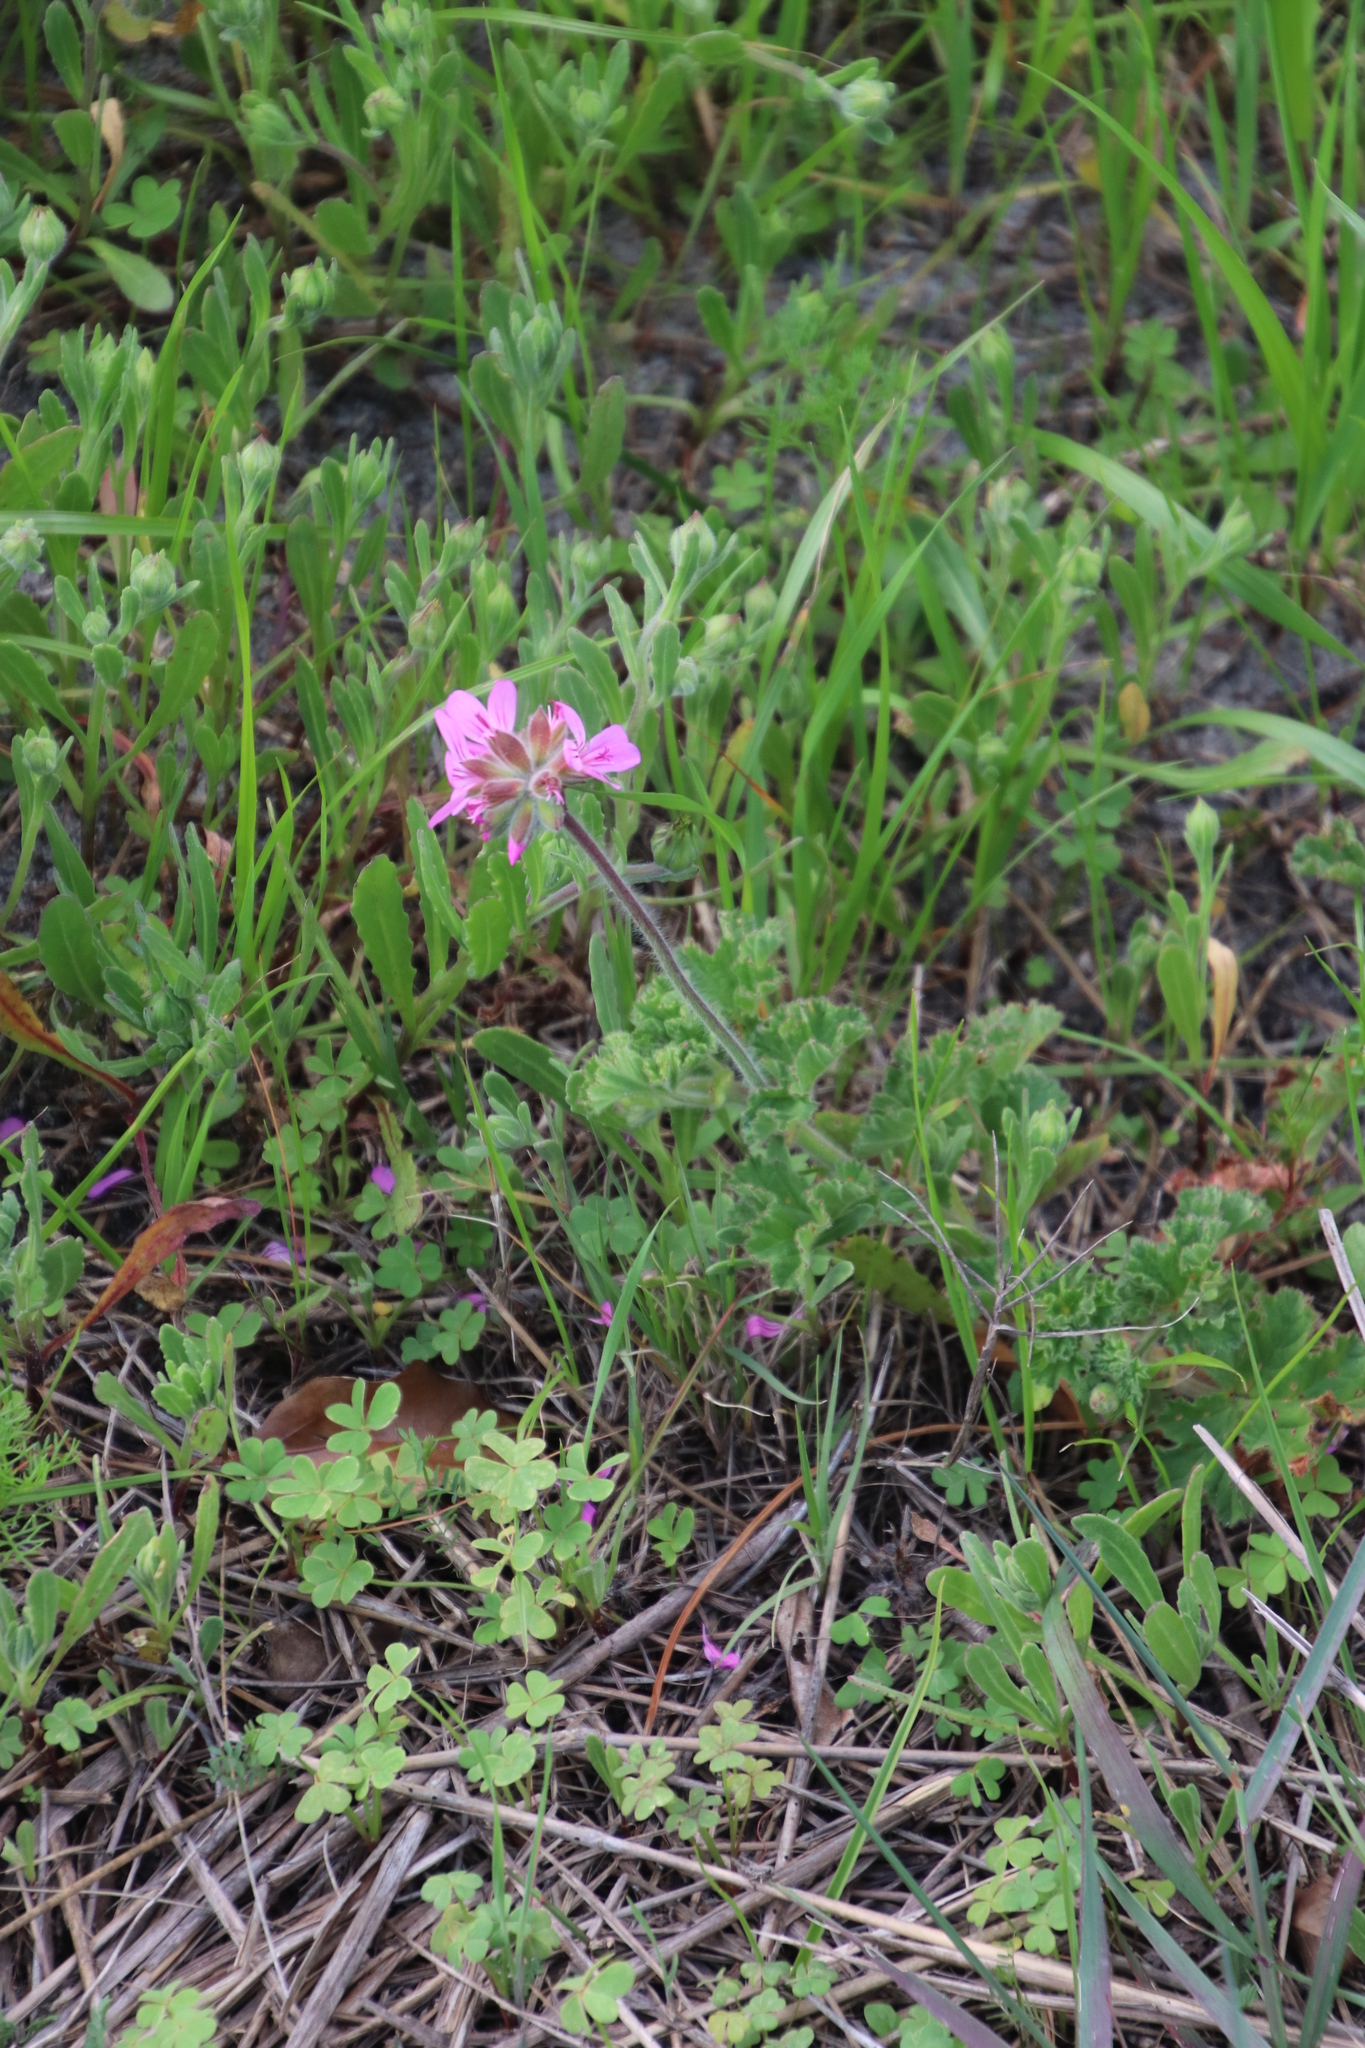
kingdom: Plantae
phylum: Tracheophyta
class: Magnoliopsida
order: Geraniales
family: Geraniaceae
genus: Pelargonium
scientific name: Pelargonium capitatum
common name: Rose scented geranium
